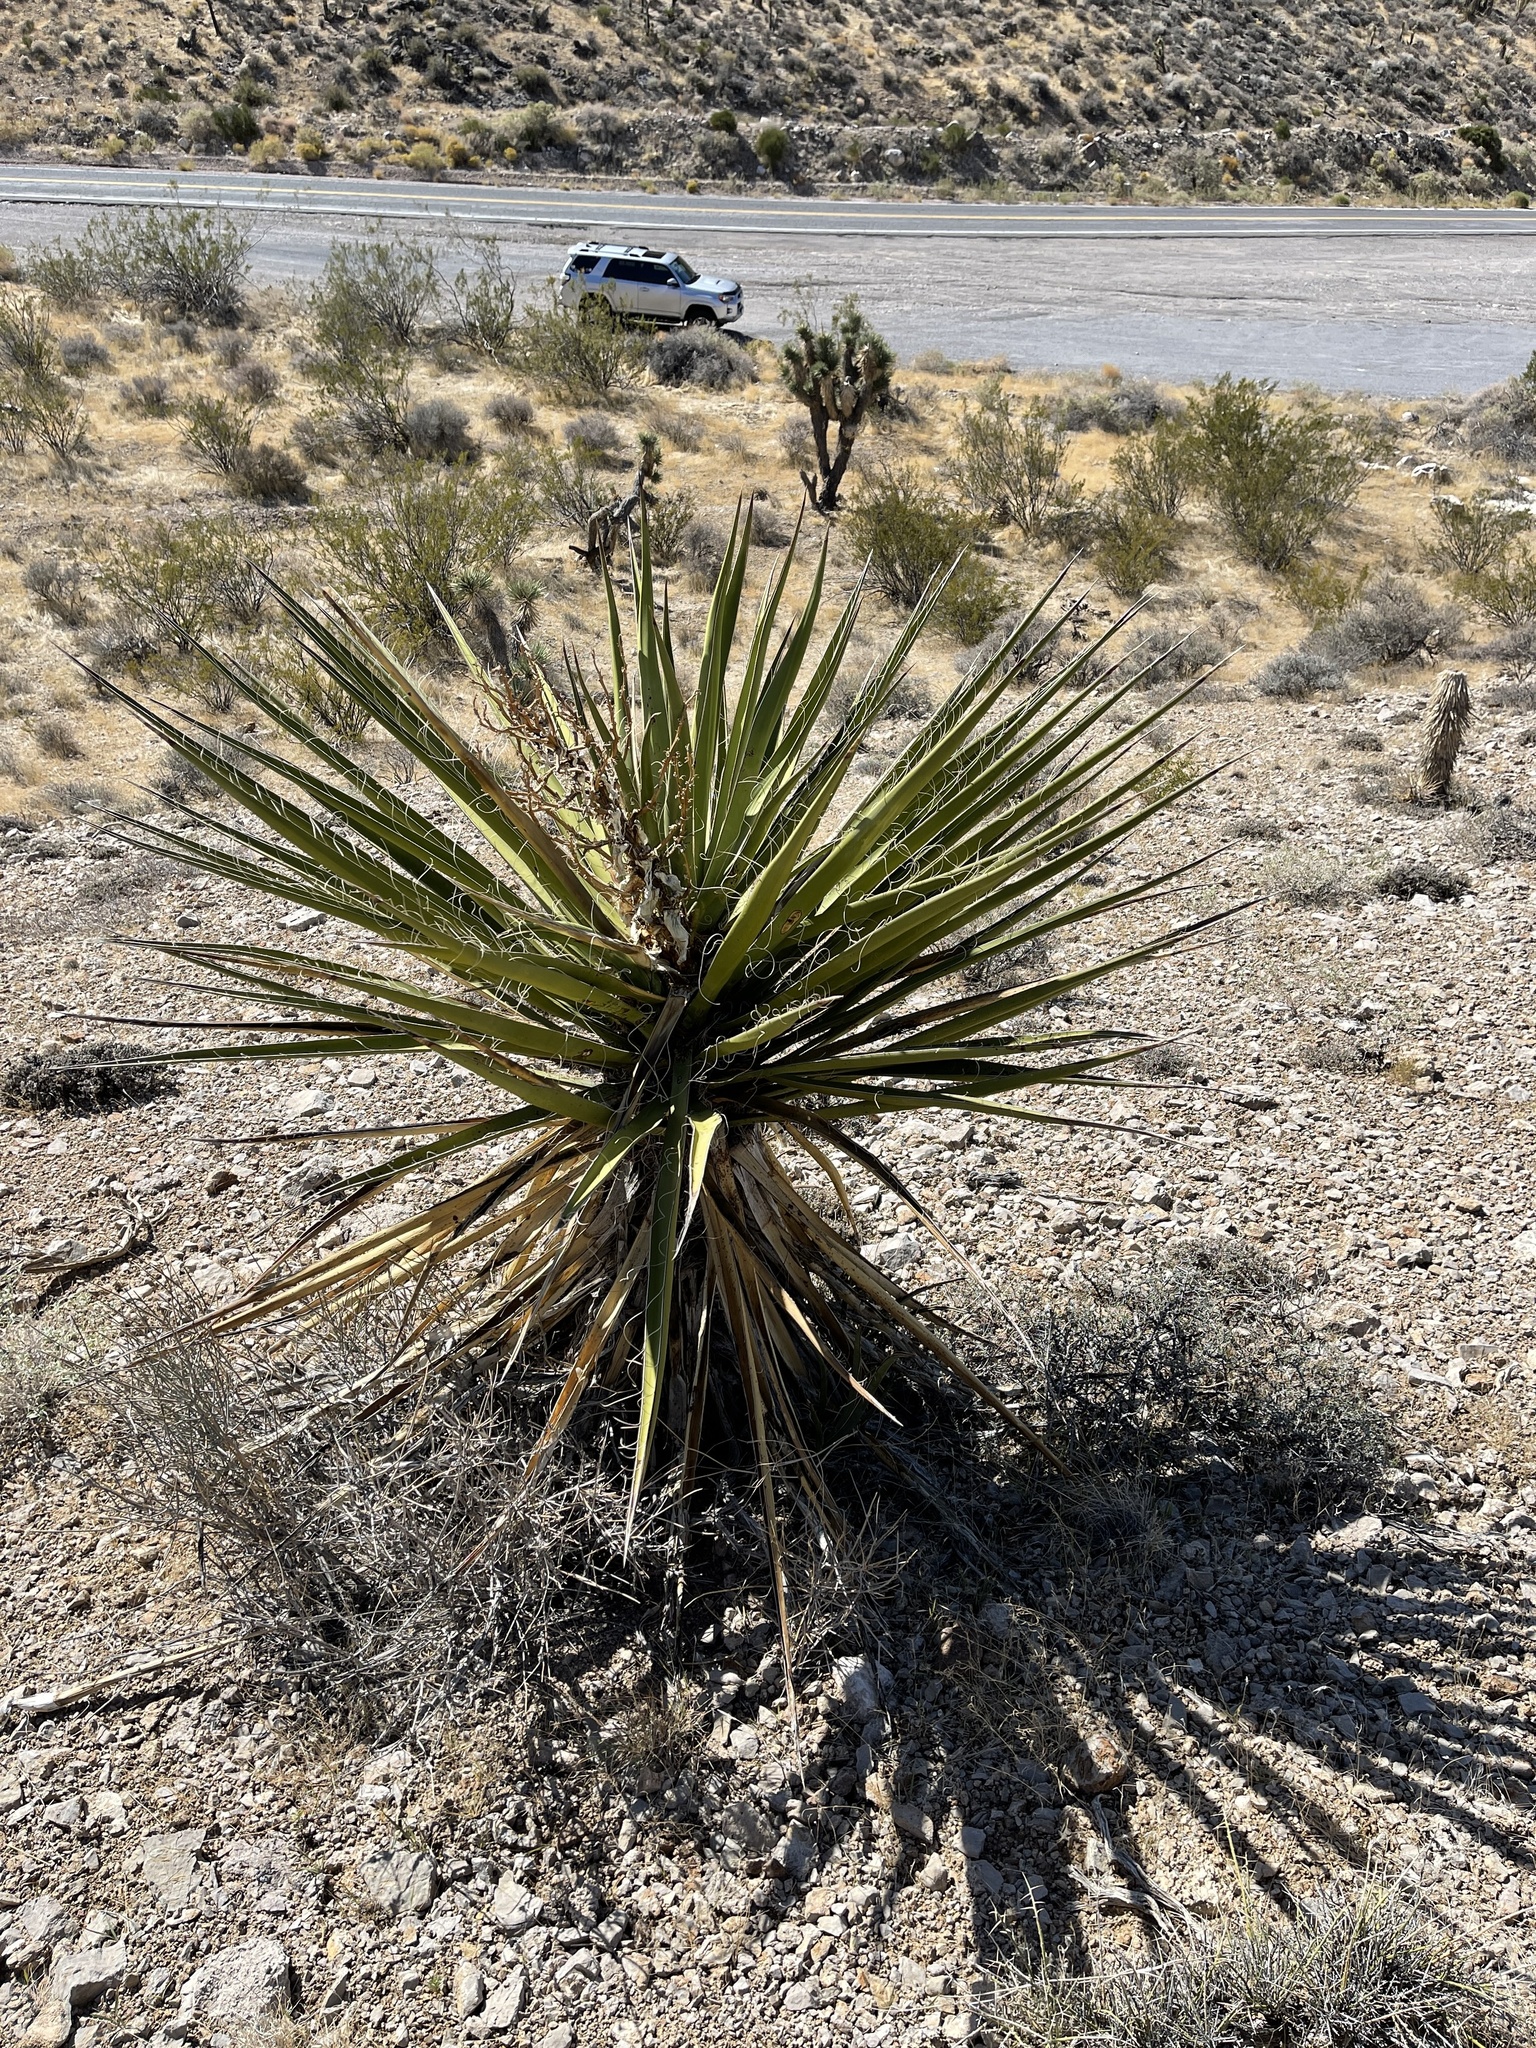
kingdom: Plantae
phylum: Tracheophyta
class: Liliopsida
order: Asparagales
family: Asparagaceae
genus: Yucca
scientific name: Yucca schidigera
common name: Mojave yucca
